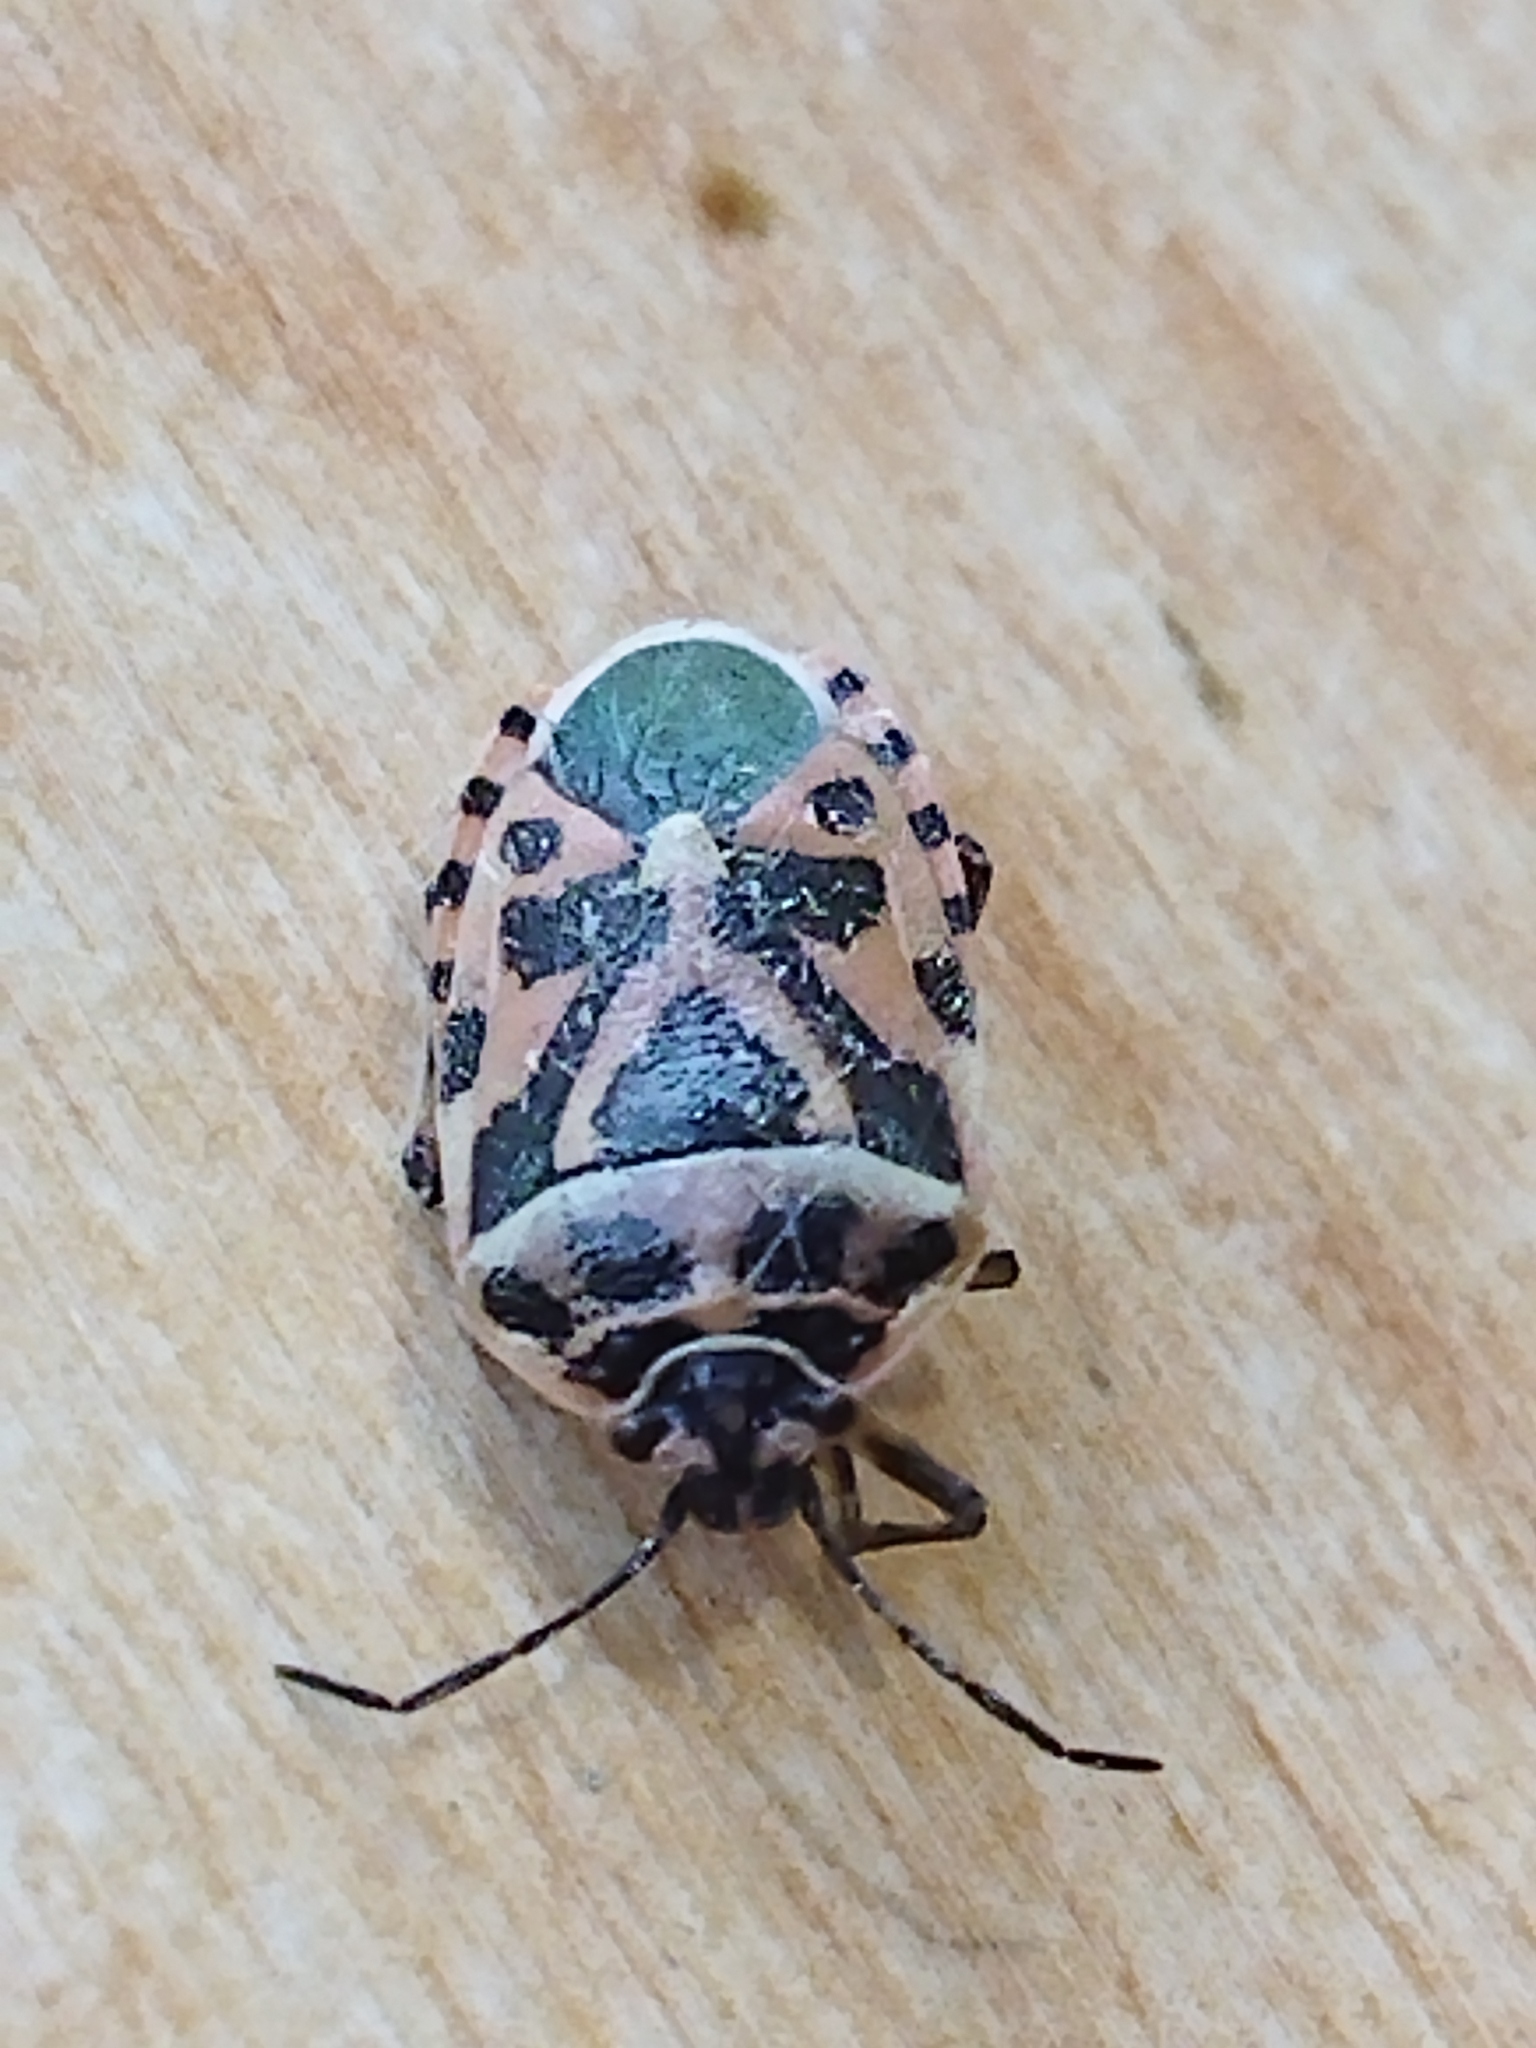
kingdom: Animalia
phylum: Arthropoda
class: Insecta
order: Hemiptera
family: Pentatomidae
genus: Eurydema
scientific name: Eurydema ventralis
